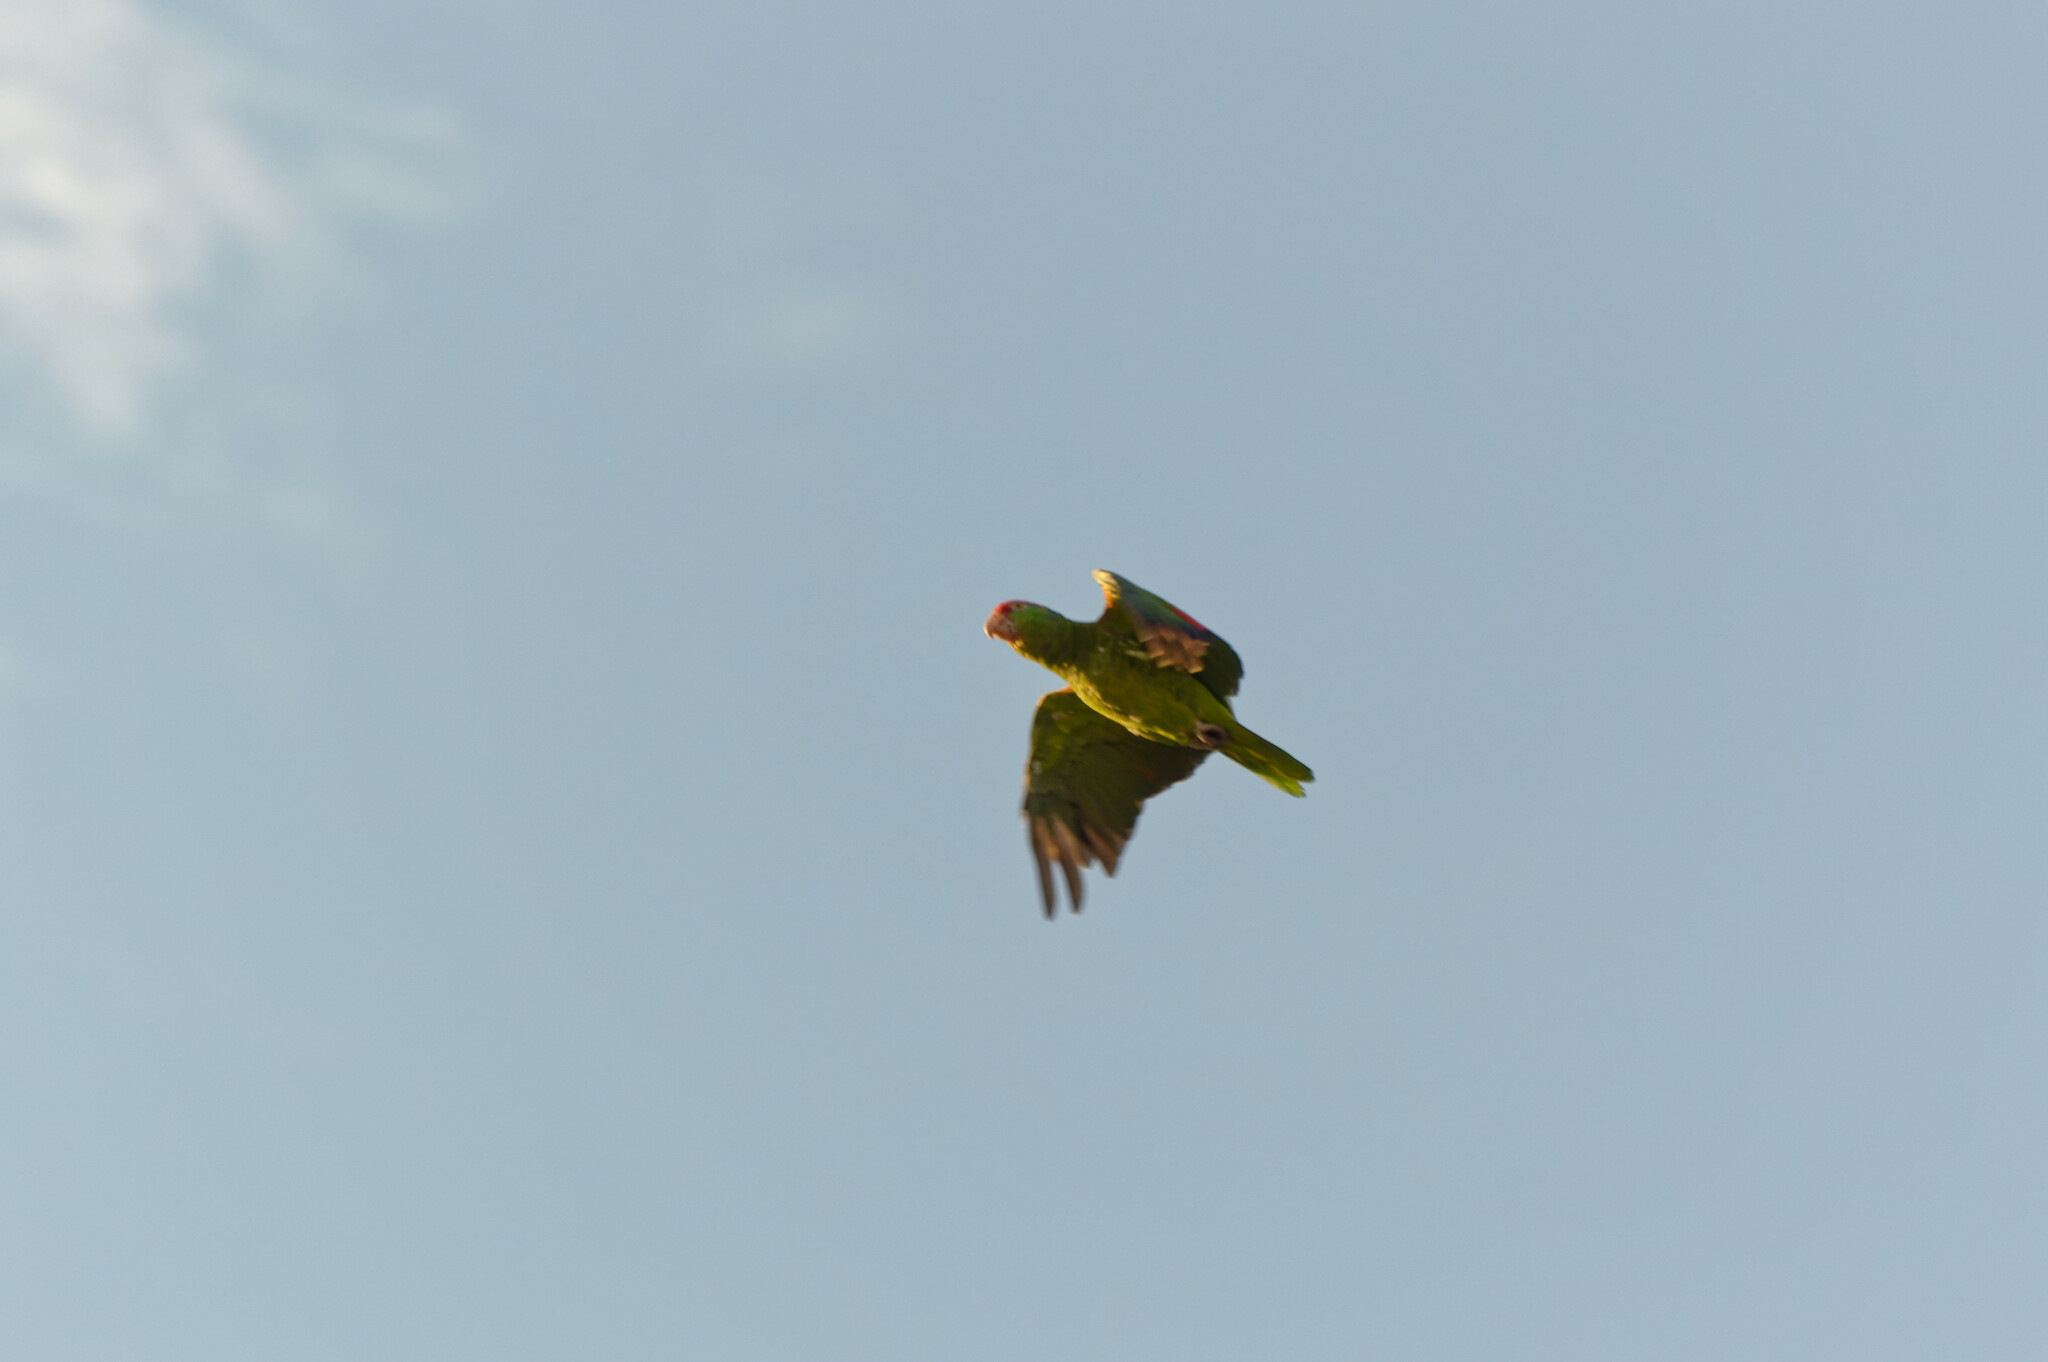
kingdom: Animalia
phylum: Chordata
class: Aves
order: Psittaciformes
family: Psittacidae
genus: Amazona
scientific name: Amazona viridigenalis
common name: Red-crowned amazon
